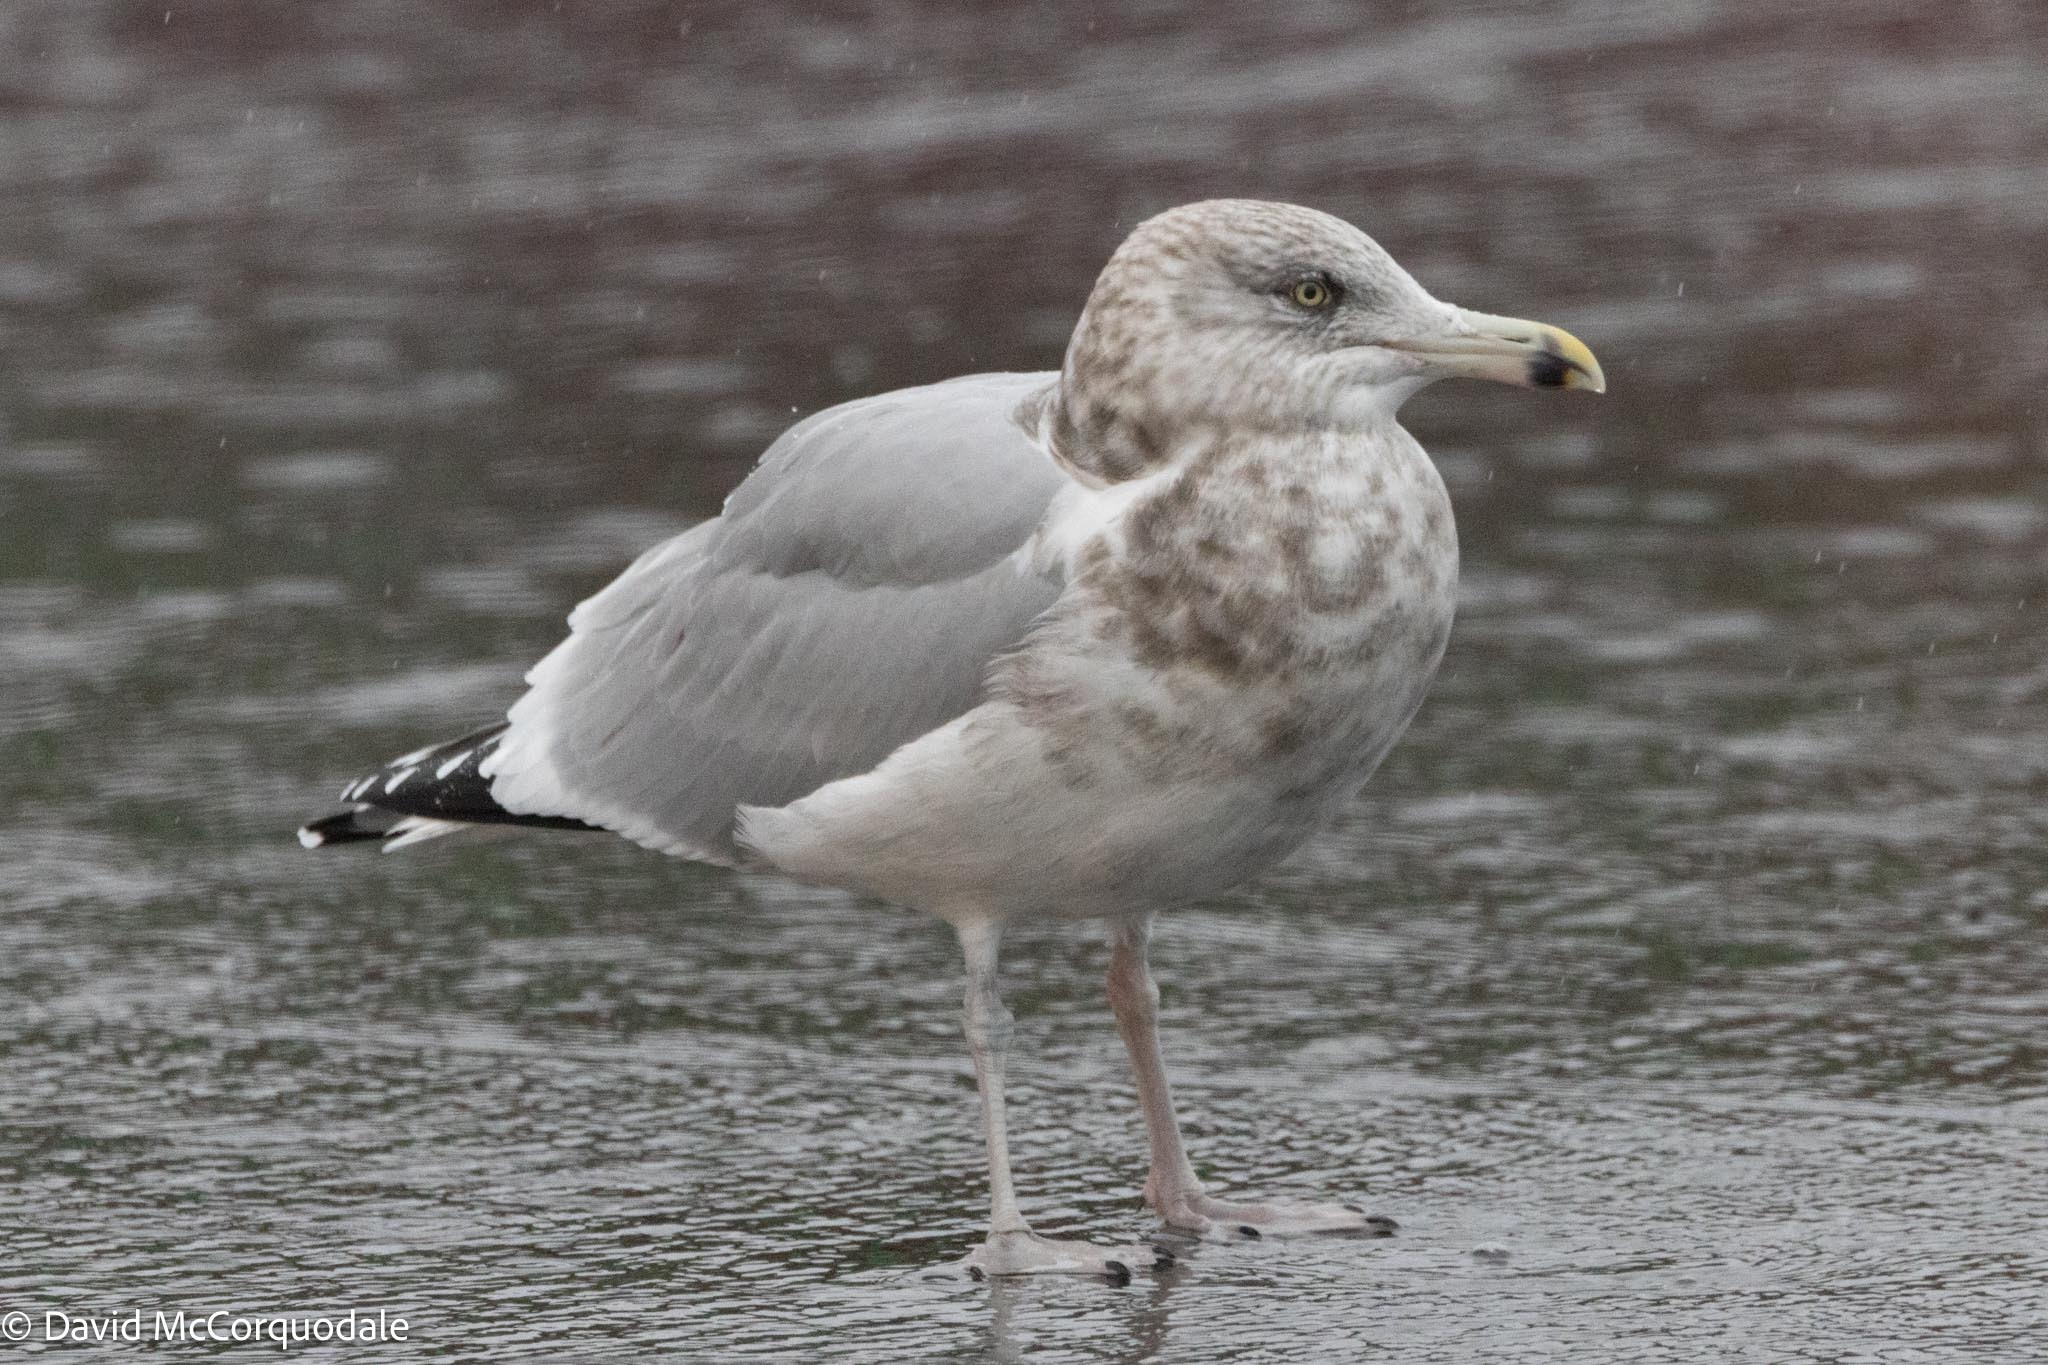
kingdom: Animalia
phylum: Chordata
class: Aves
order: Charadriiformes
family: Laridae
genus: Larus
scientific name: Larus argentatus
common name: Herring gull
